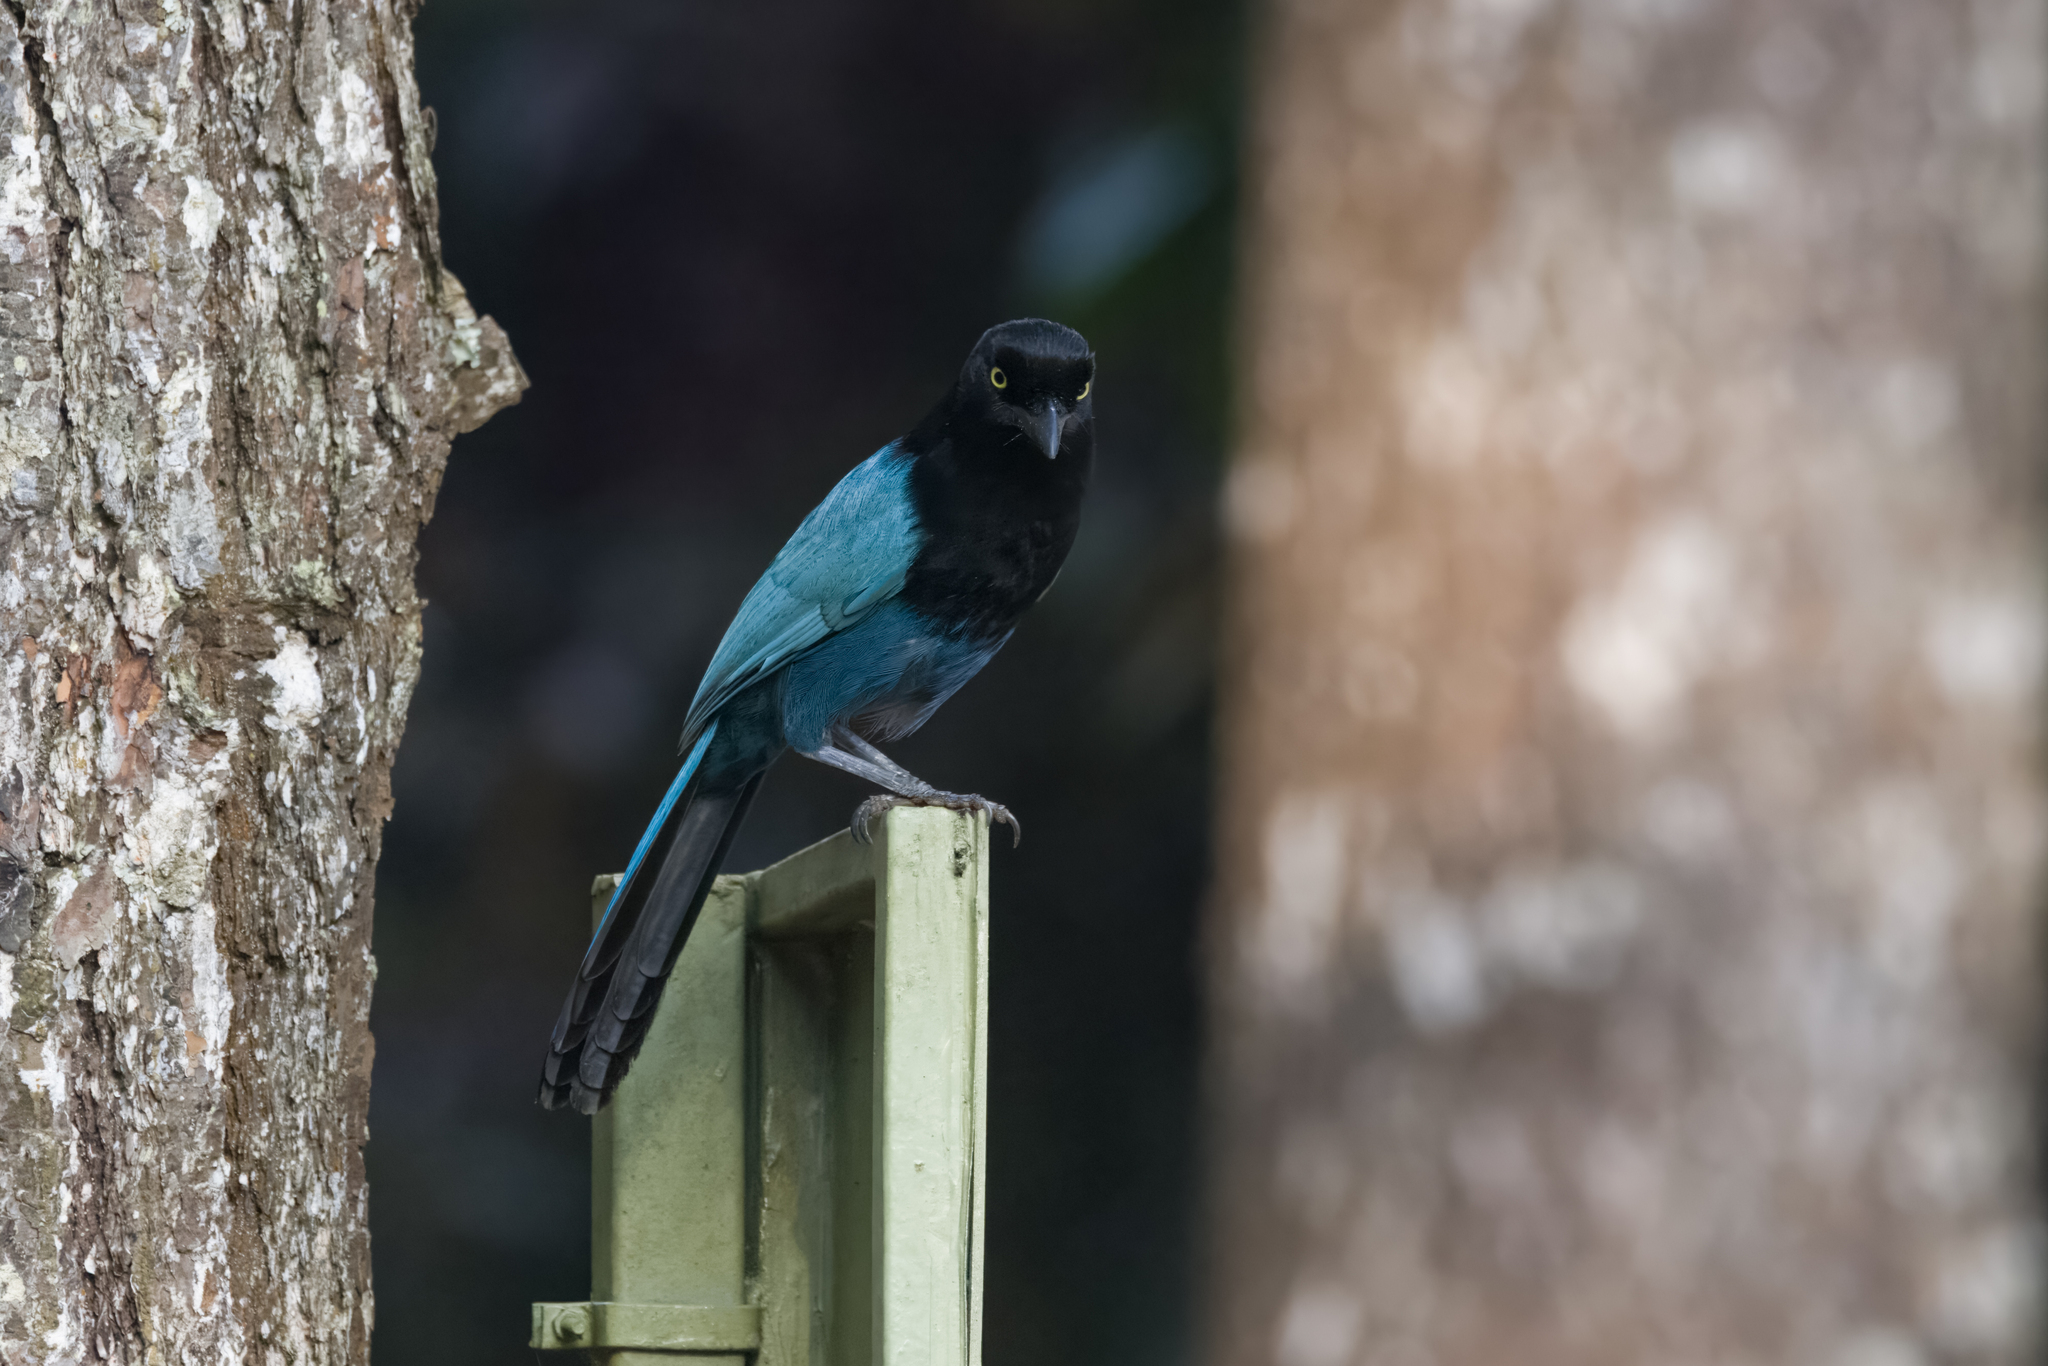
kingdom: Animalia
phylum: Chordata
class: Aves
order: Passeriformes
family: Corvidae
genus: Cyanocorax
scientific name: Cyanocorax melanocyaneus
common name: Bushy-crested jay
